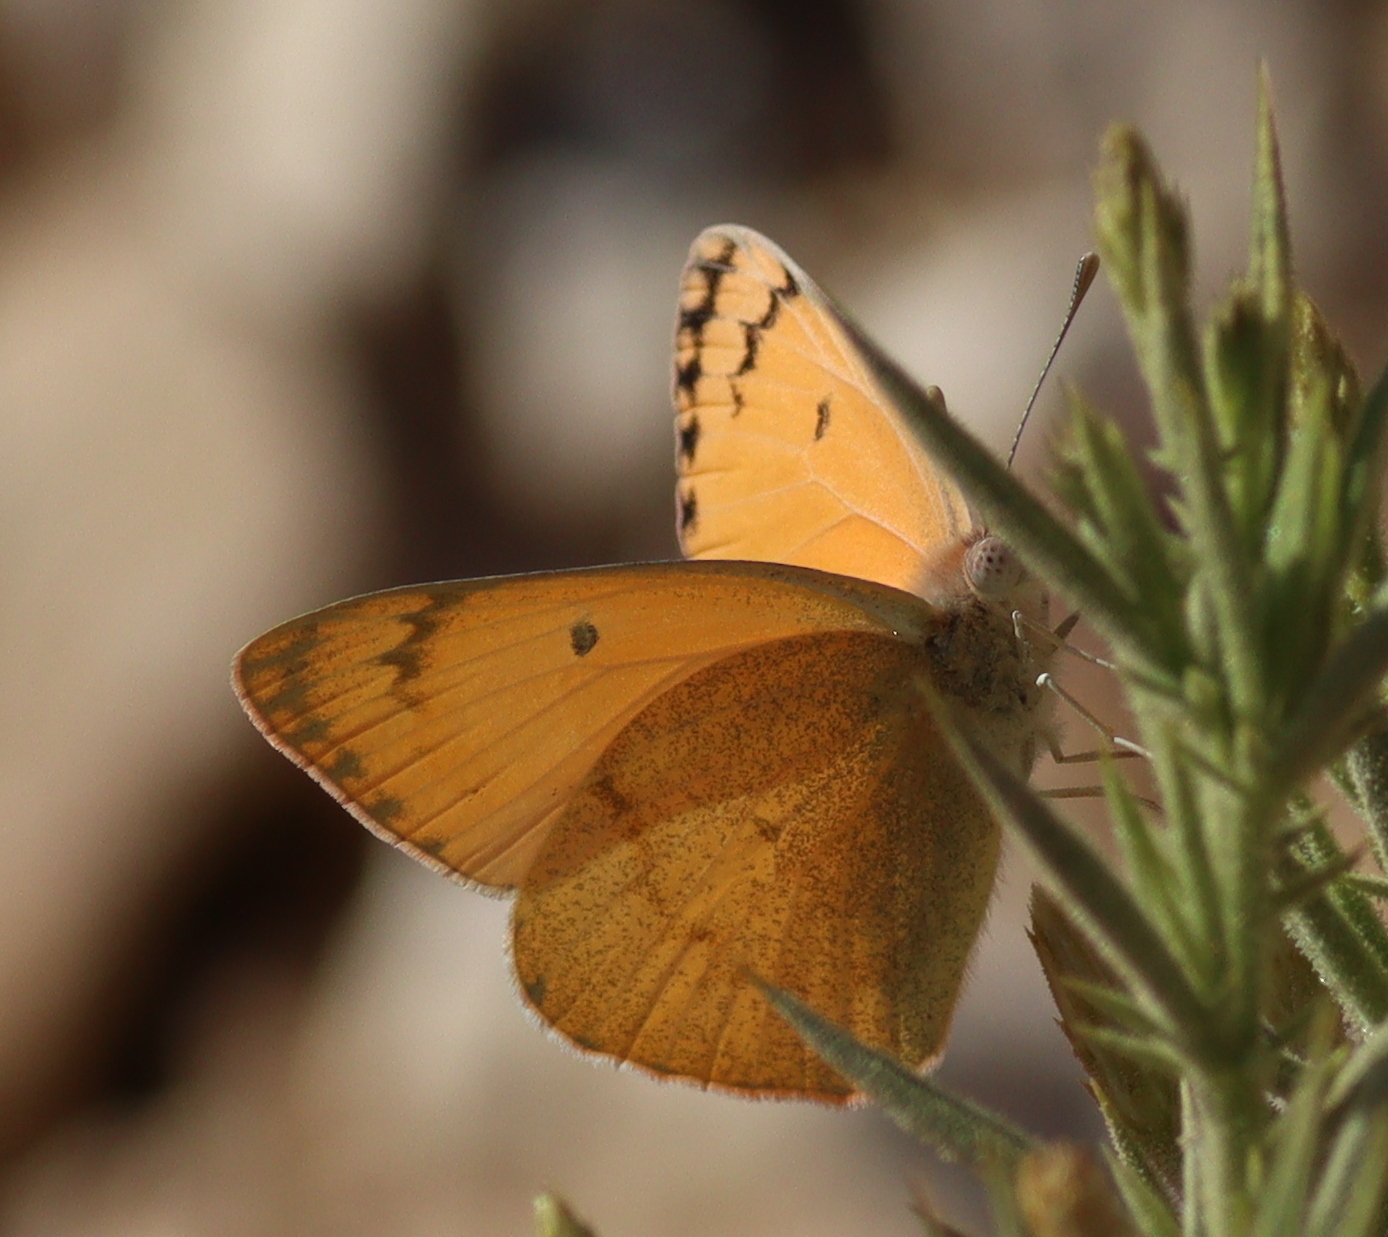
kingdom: Animalia
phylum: Arthropoda
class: Insecta
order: Lepidoptera
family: Pieridae
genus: Colotis
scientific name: Colotis fausta
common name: Large salmon arab
